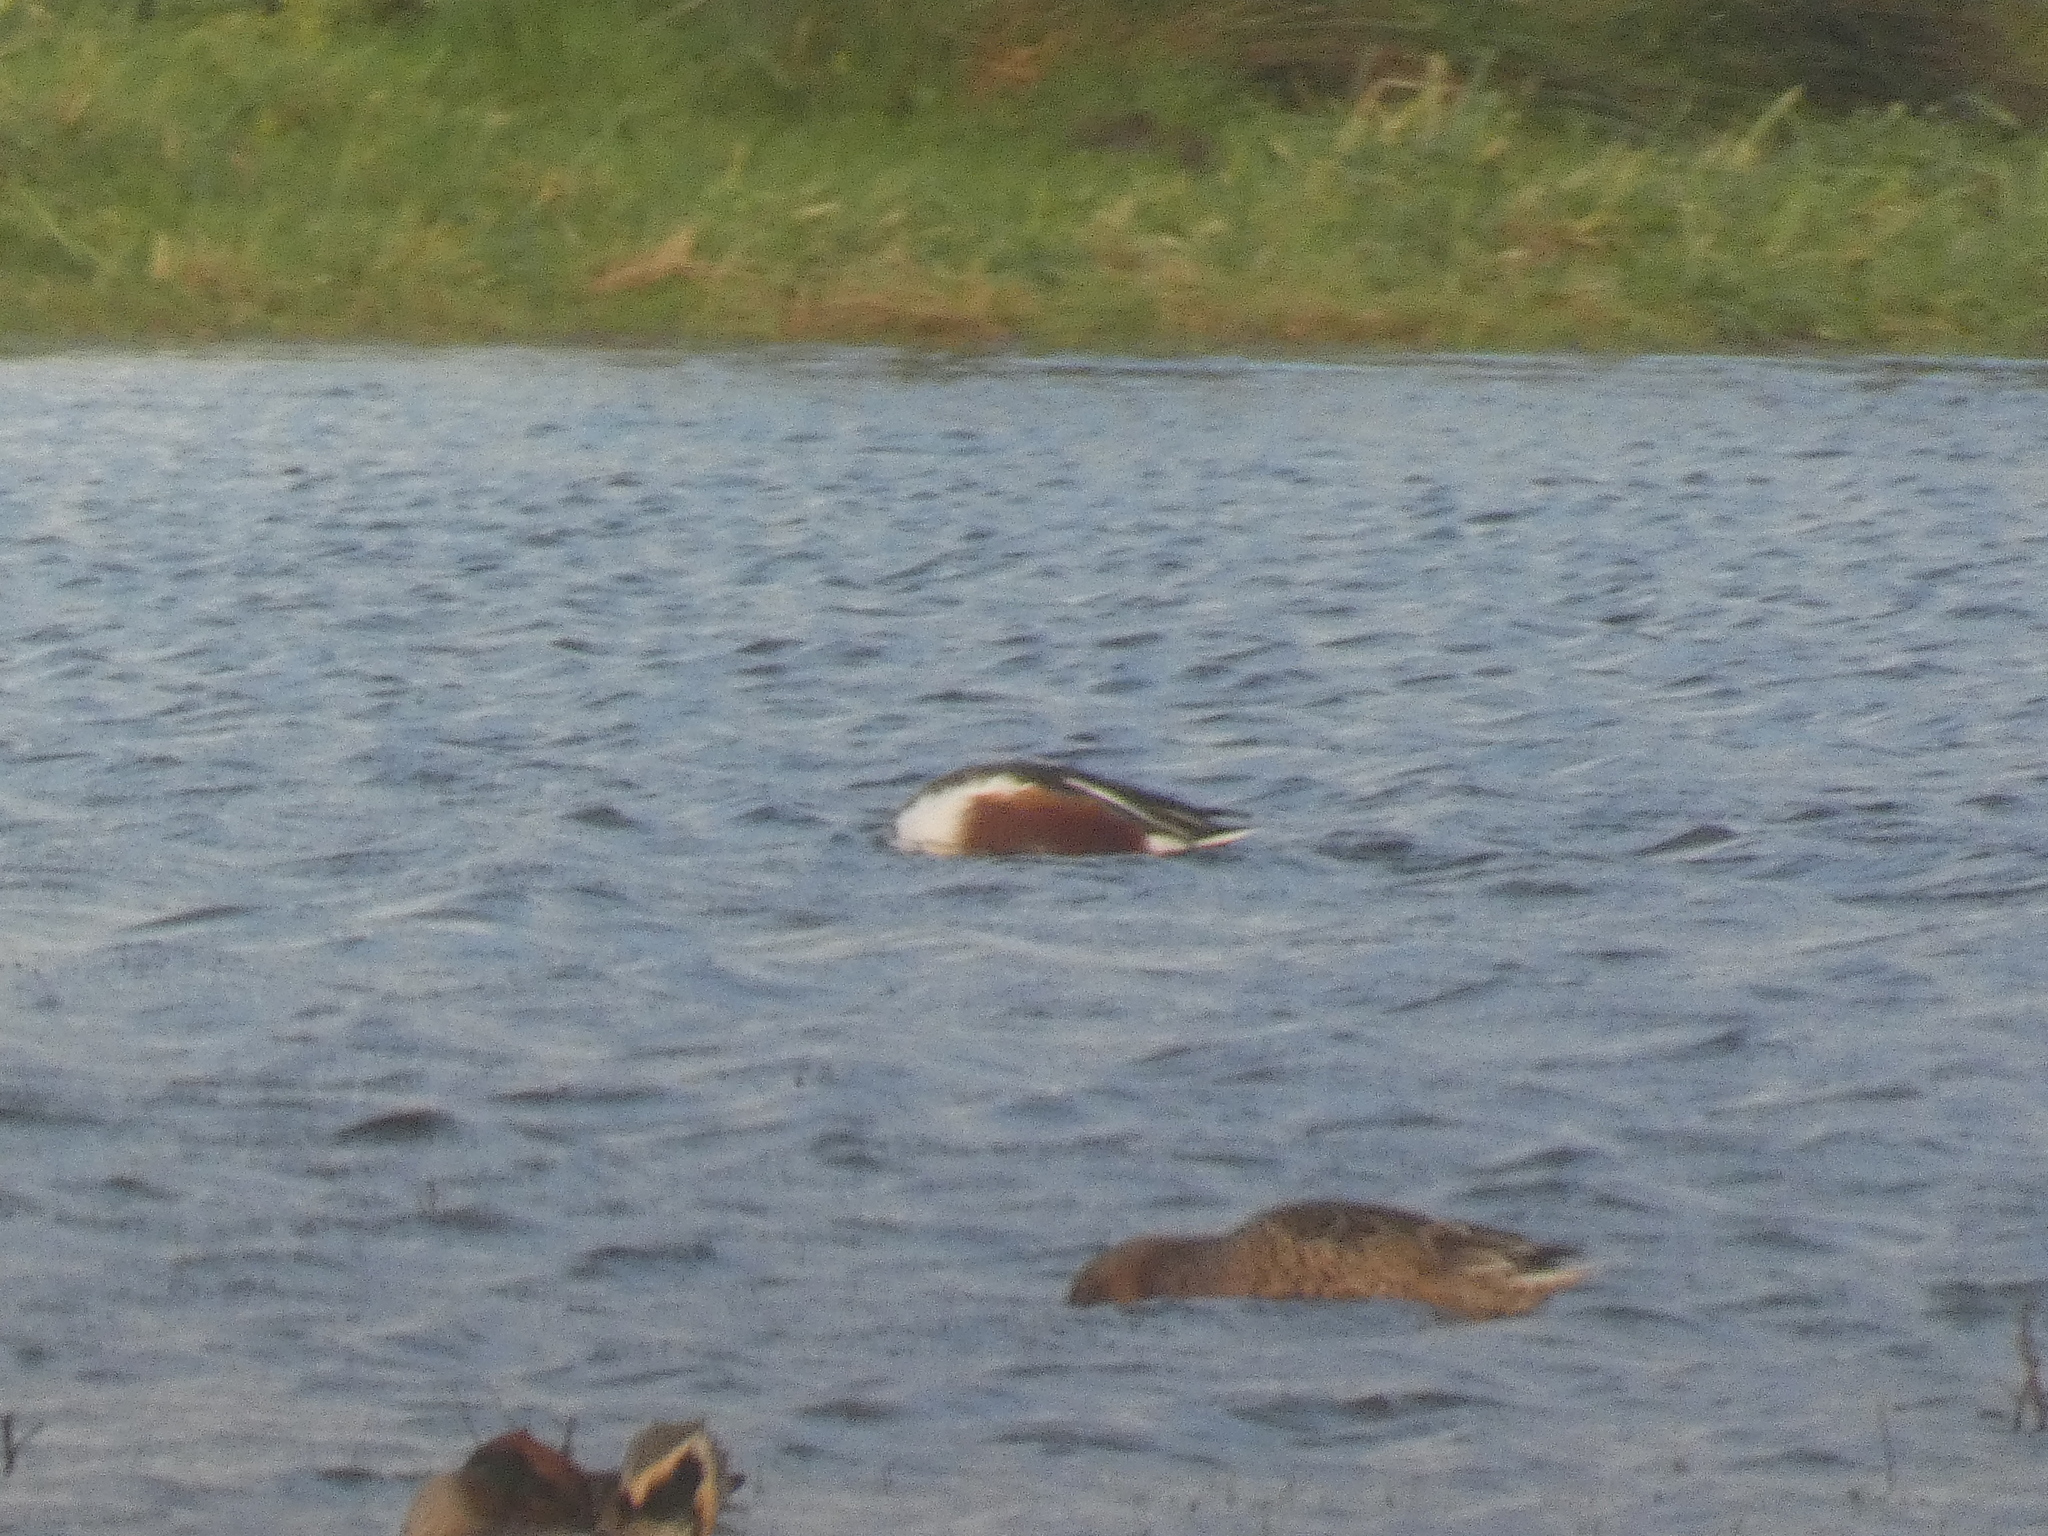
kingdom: Animalia
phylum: Chordata
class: Aves
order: Anseriformes
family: Anatidae
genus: Spatula
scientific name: Spatula clypeata
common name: Northern shoveler
